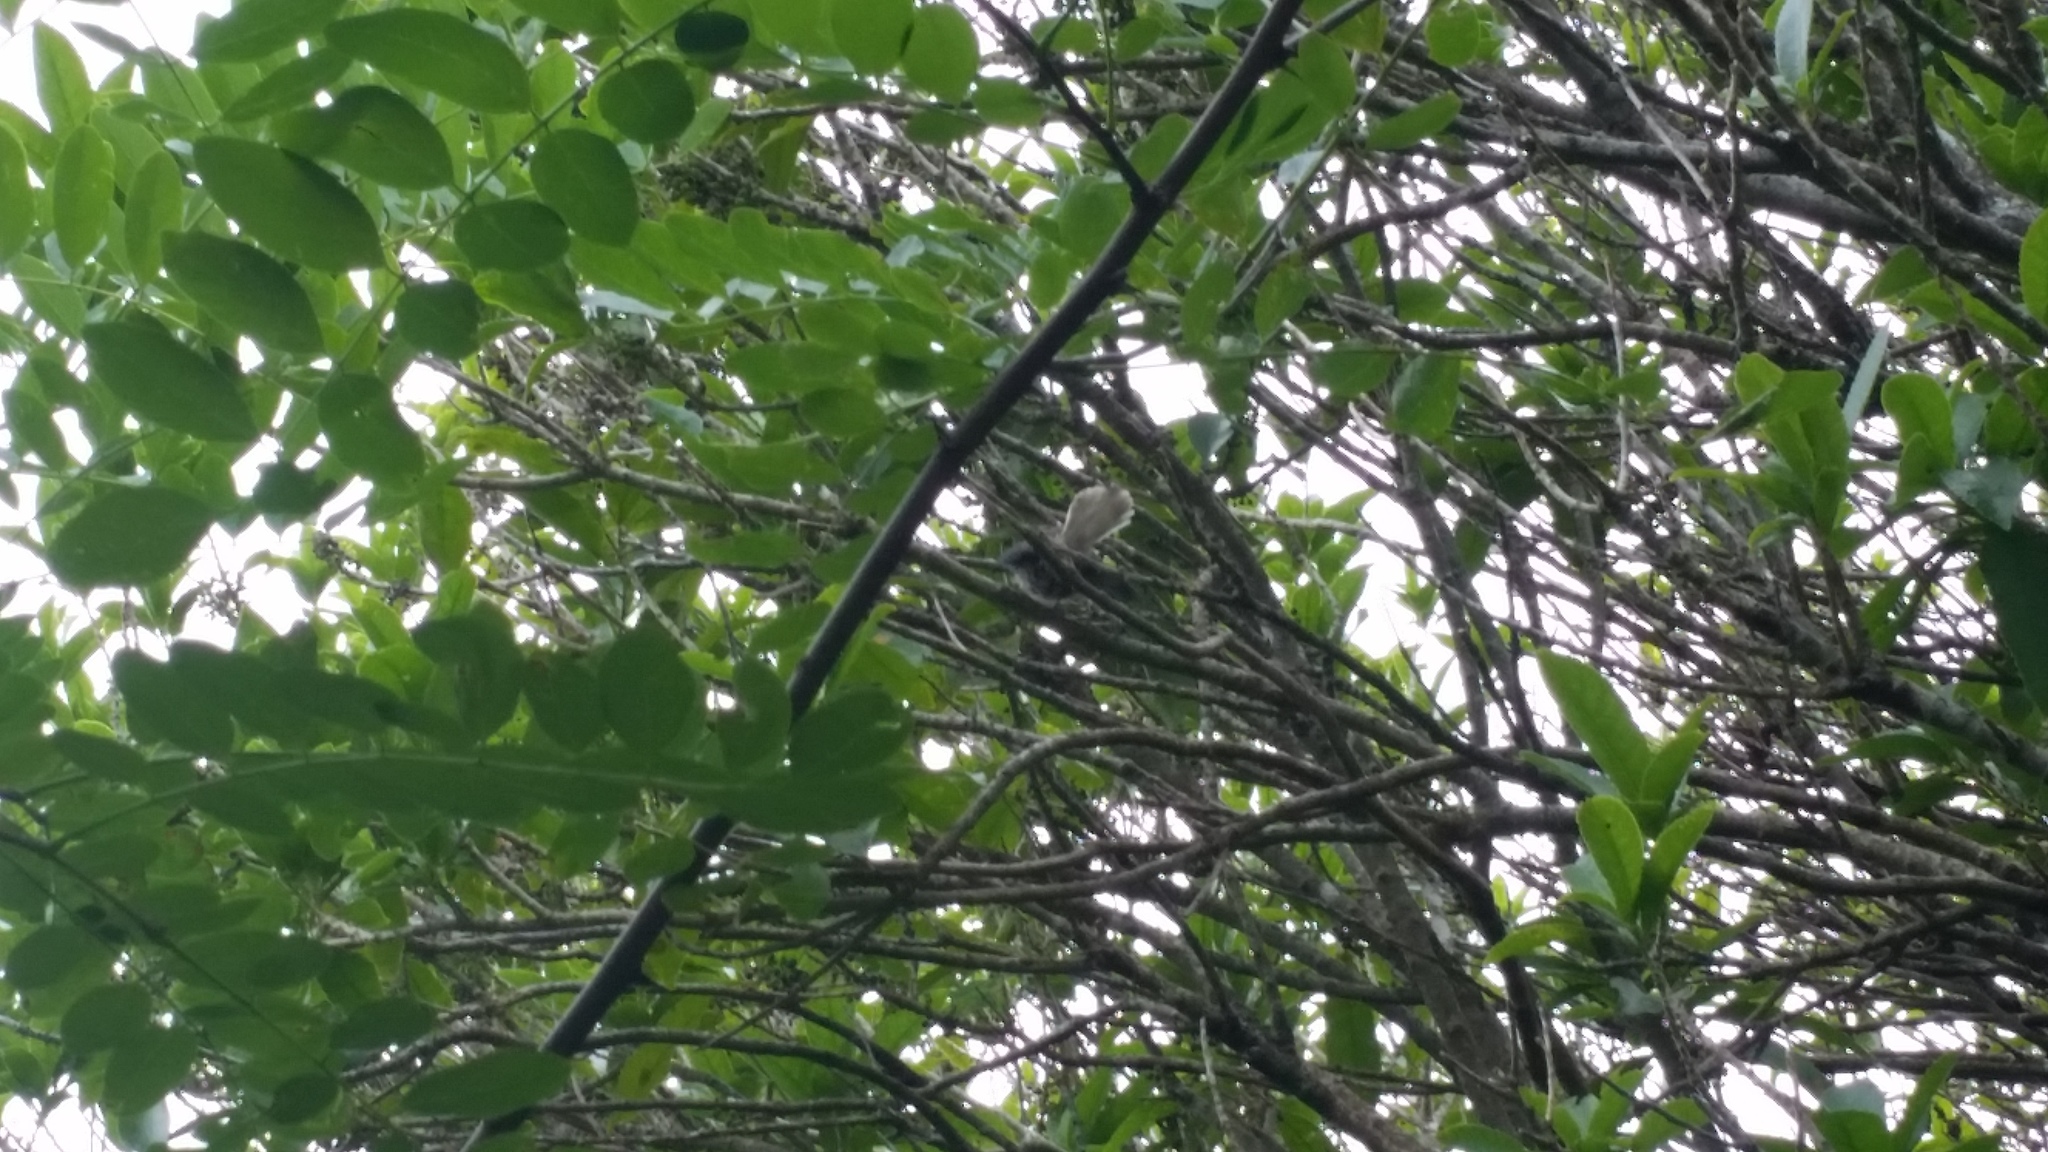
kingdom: Animalia
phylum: Chordata
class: Aves
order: Passeriformes
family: Rhipiduridae
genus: Rhipidura
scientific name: Rhipidura fuliginosa
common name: New zealand fantail
